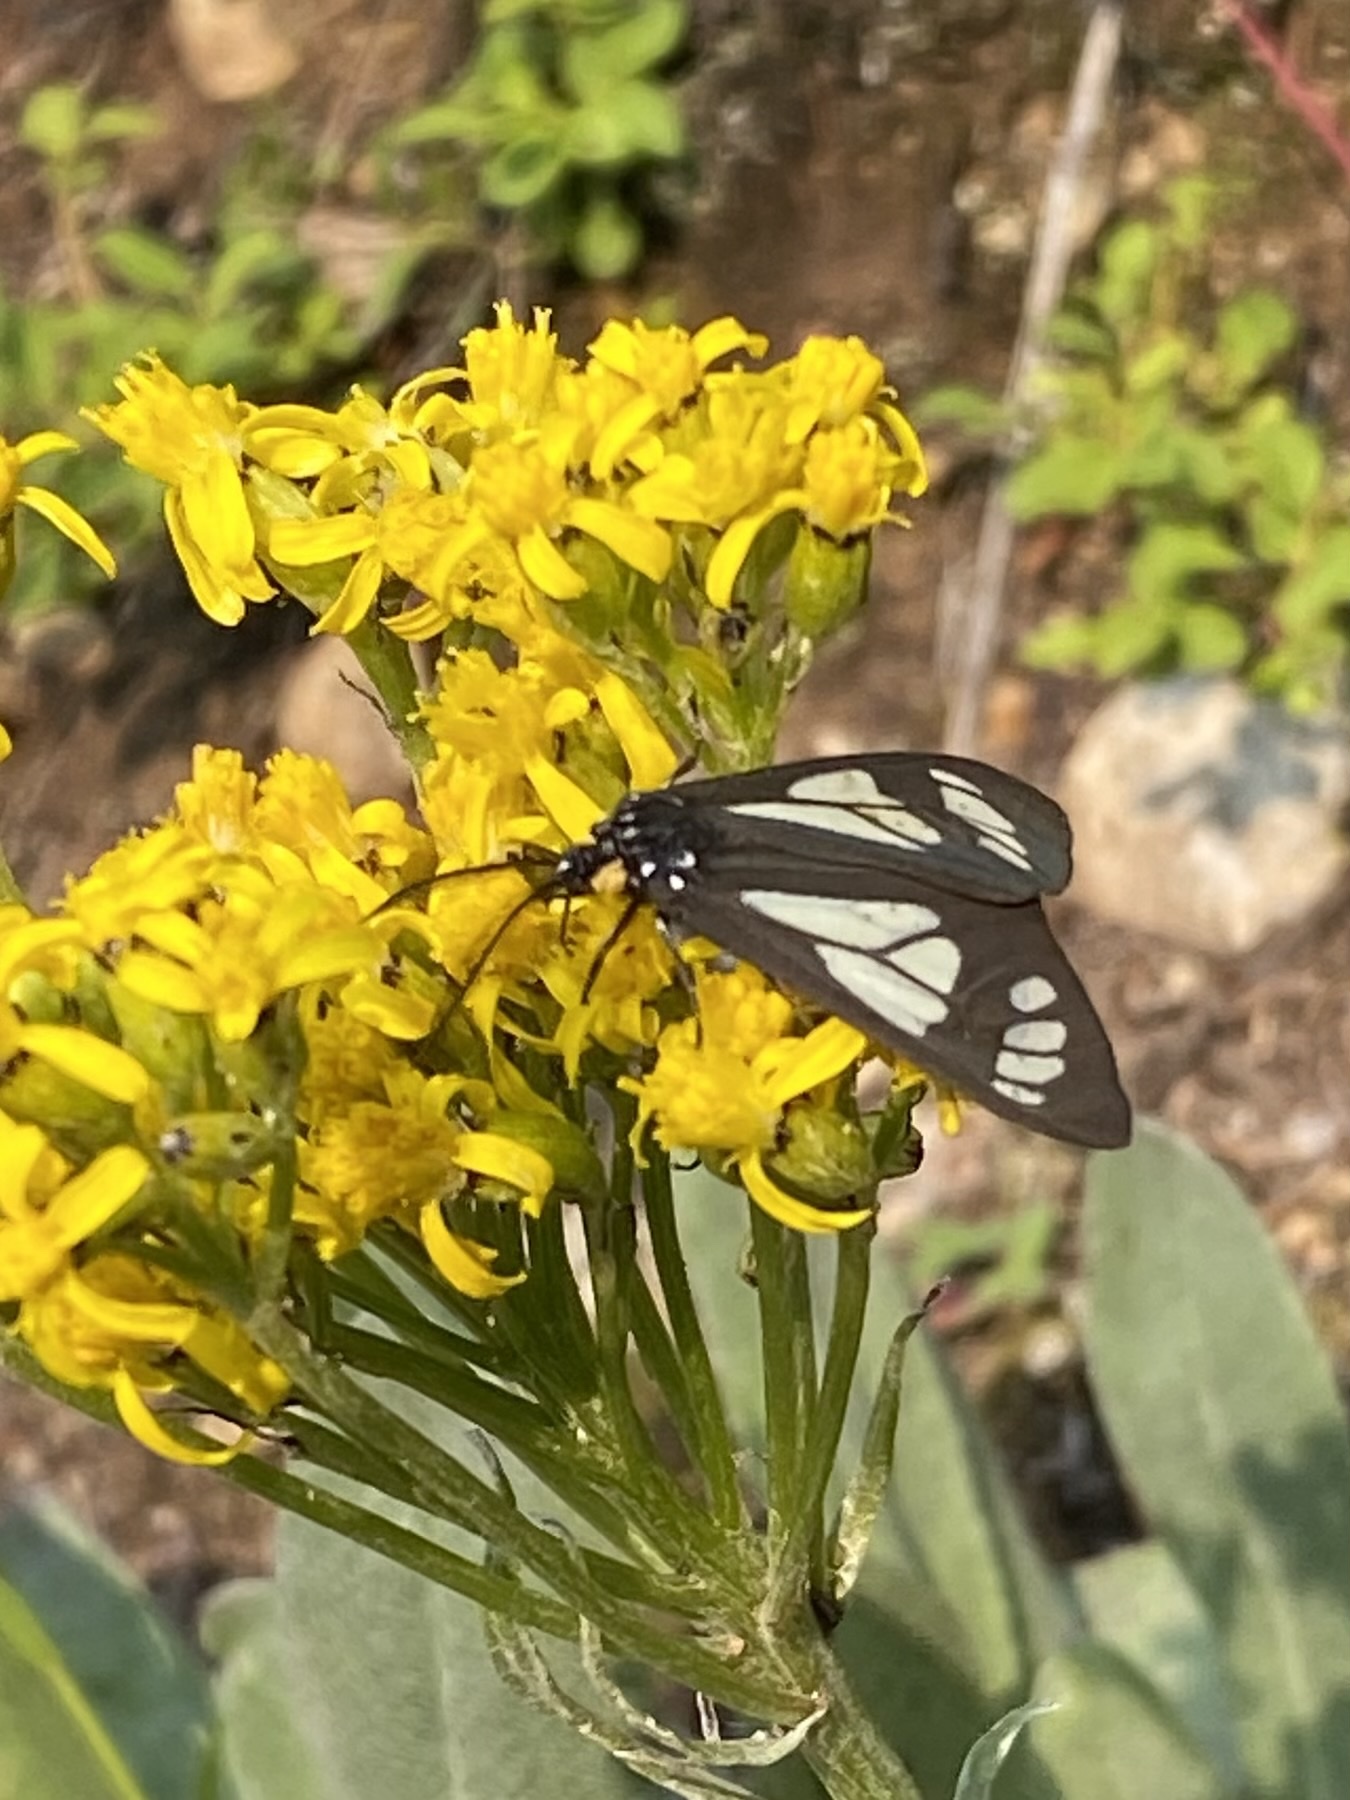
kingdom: Animalia
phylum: Arthropoda
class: Insecta
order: Lepidoptera
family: Erebidae
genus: Gnophaela
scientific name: Gnophaela vermiculata
